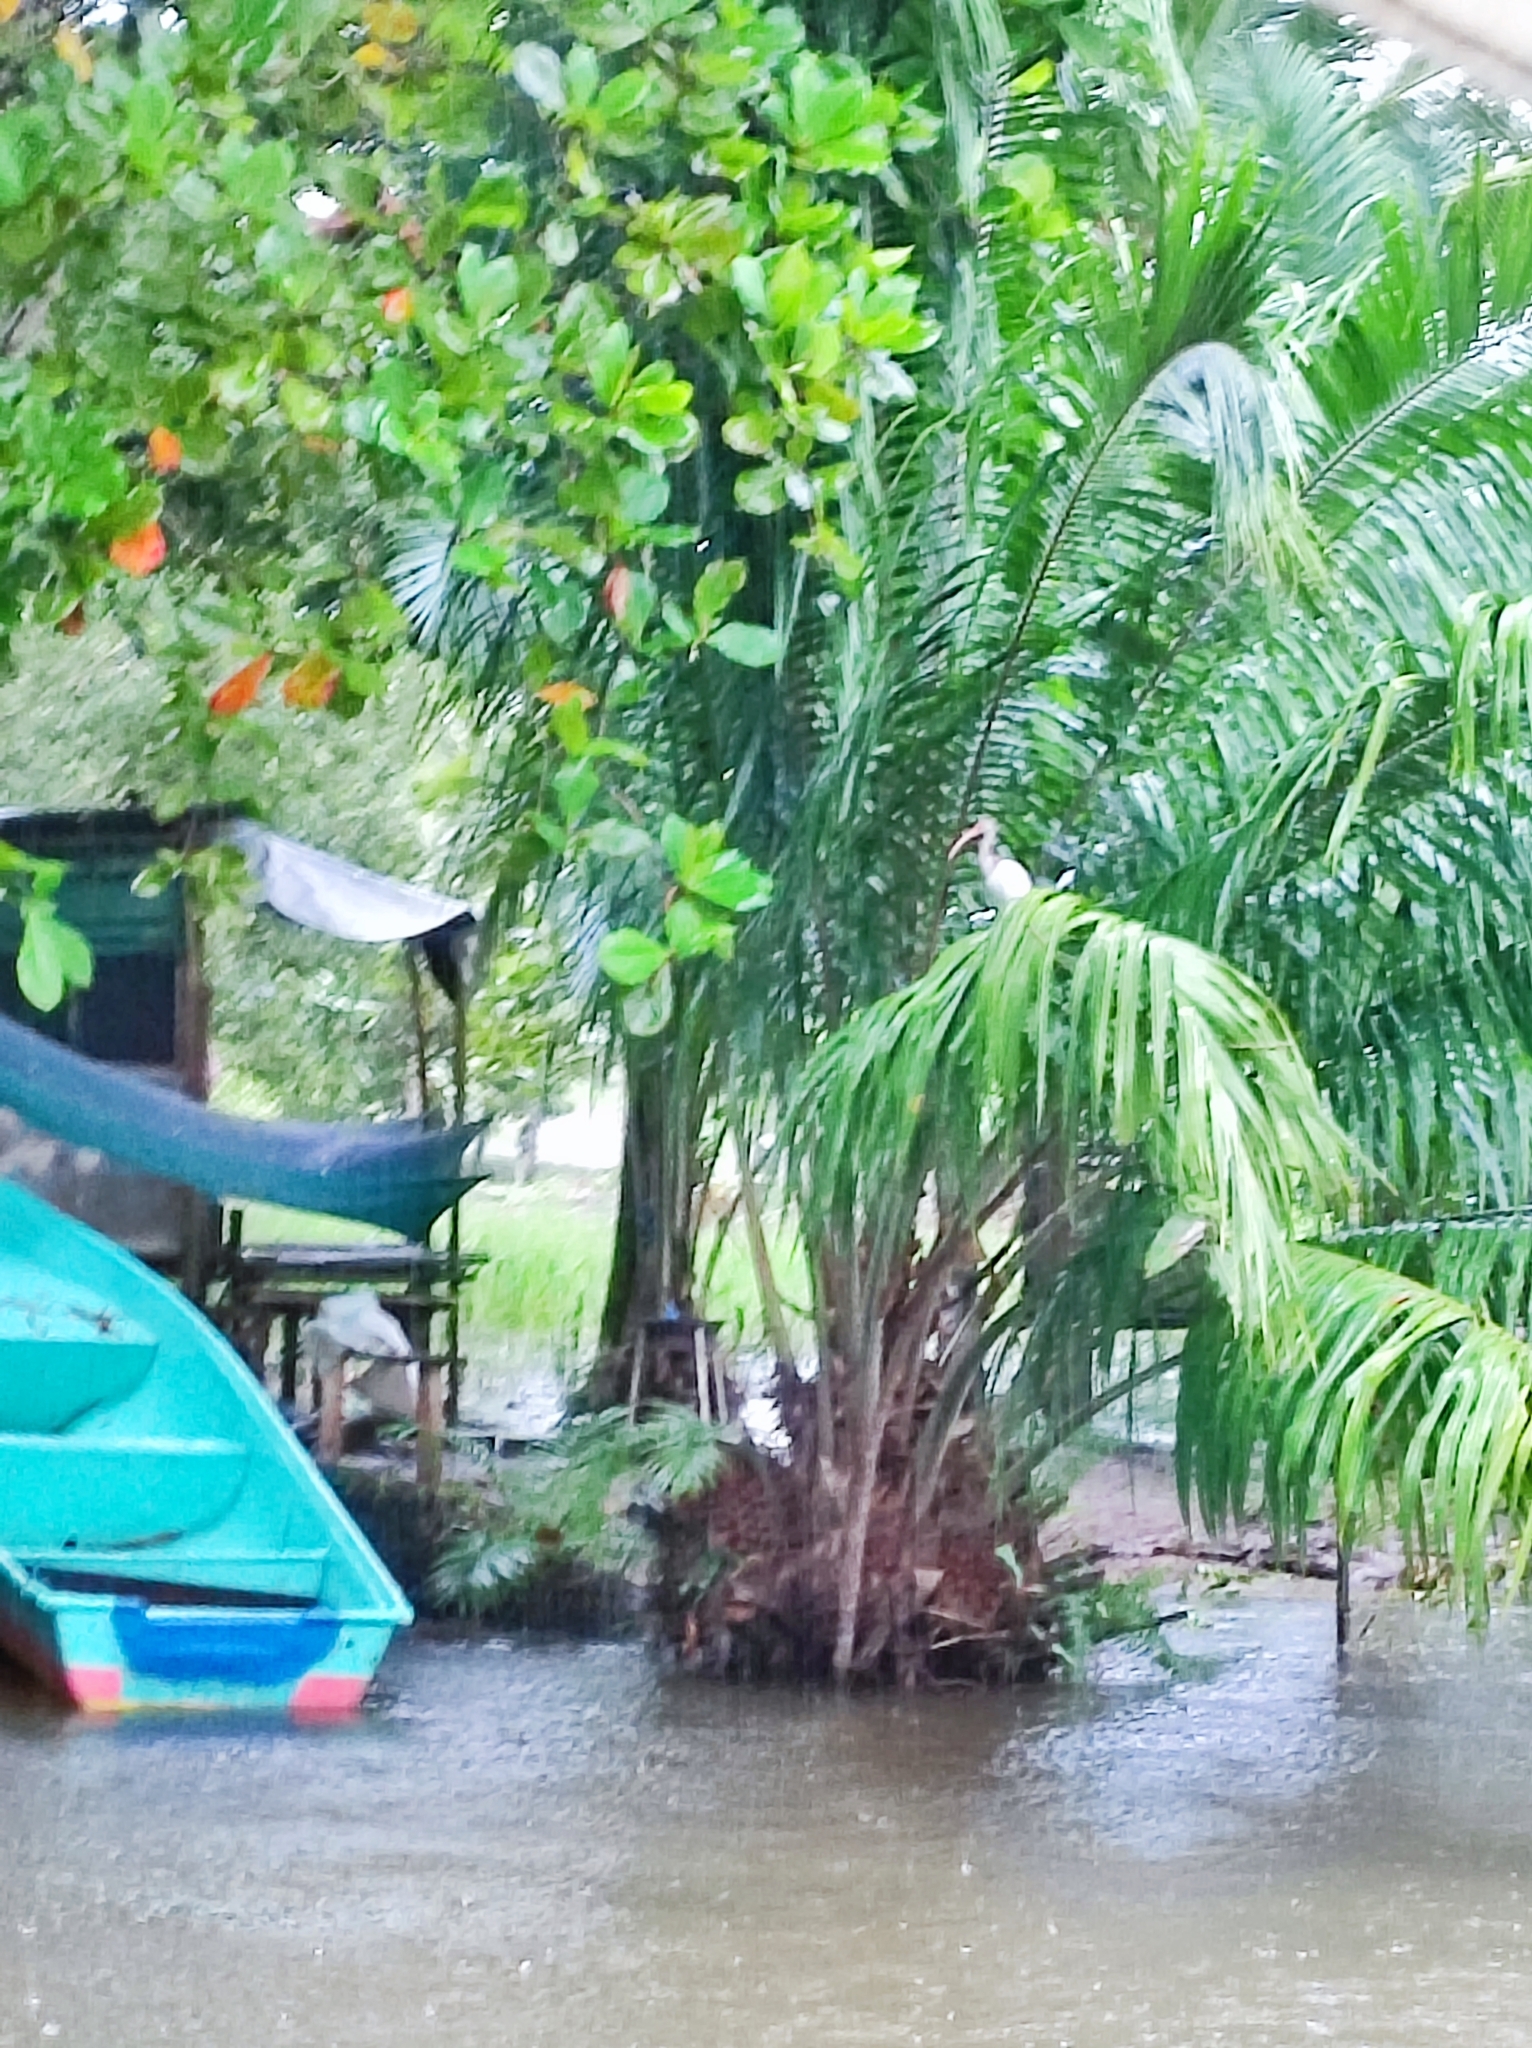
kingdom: Animalia
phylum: Chordata
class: Aves
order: Pelecaniformes
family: Threskiornithidae
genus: Eudocimus
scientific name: Eudocimus albus
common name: White ibis
